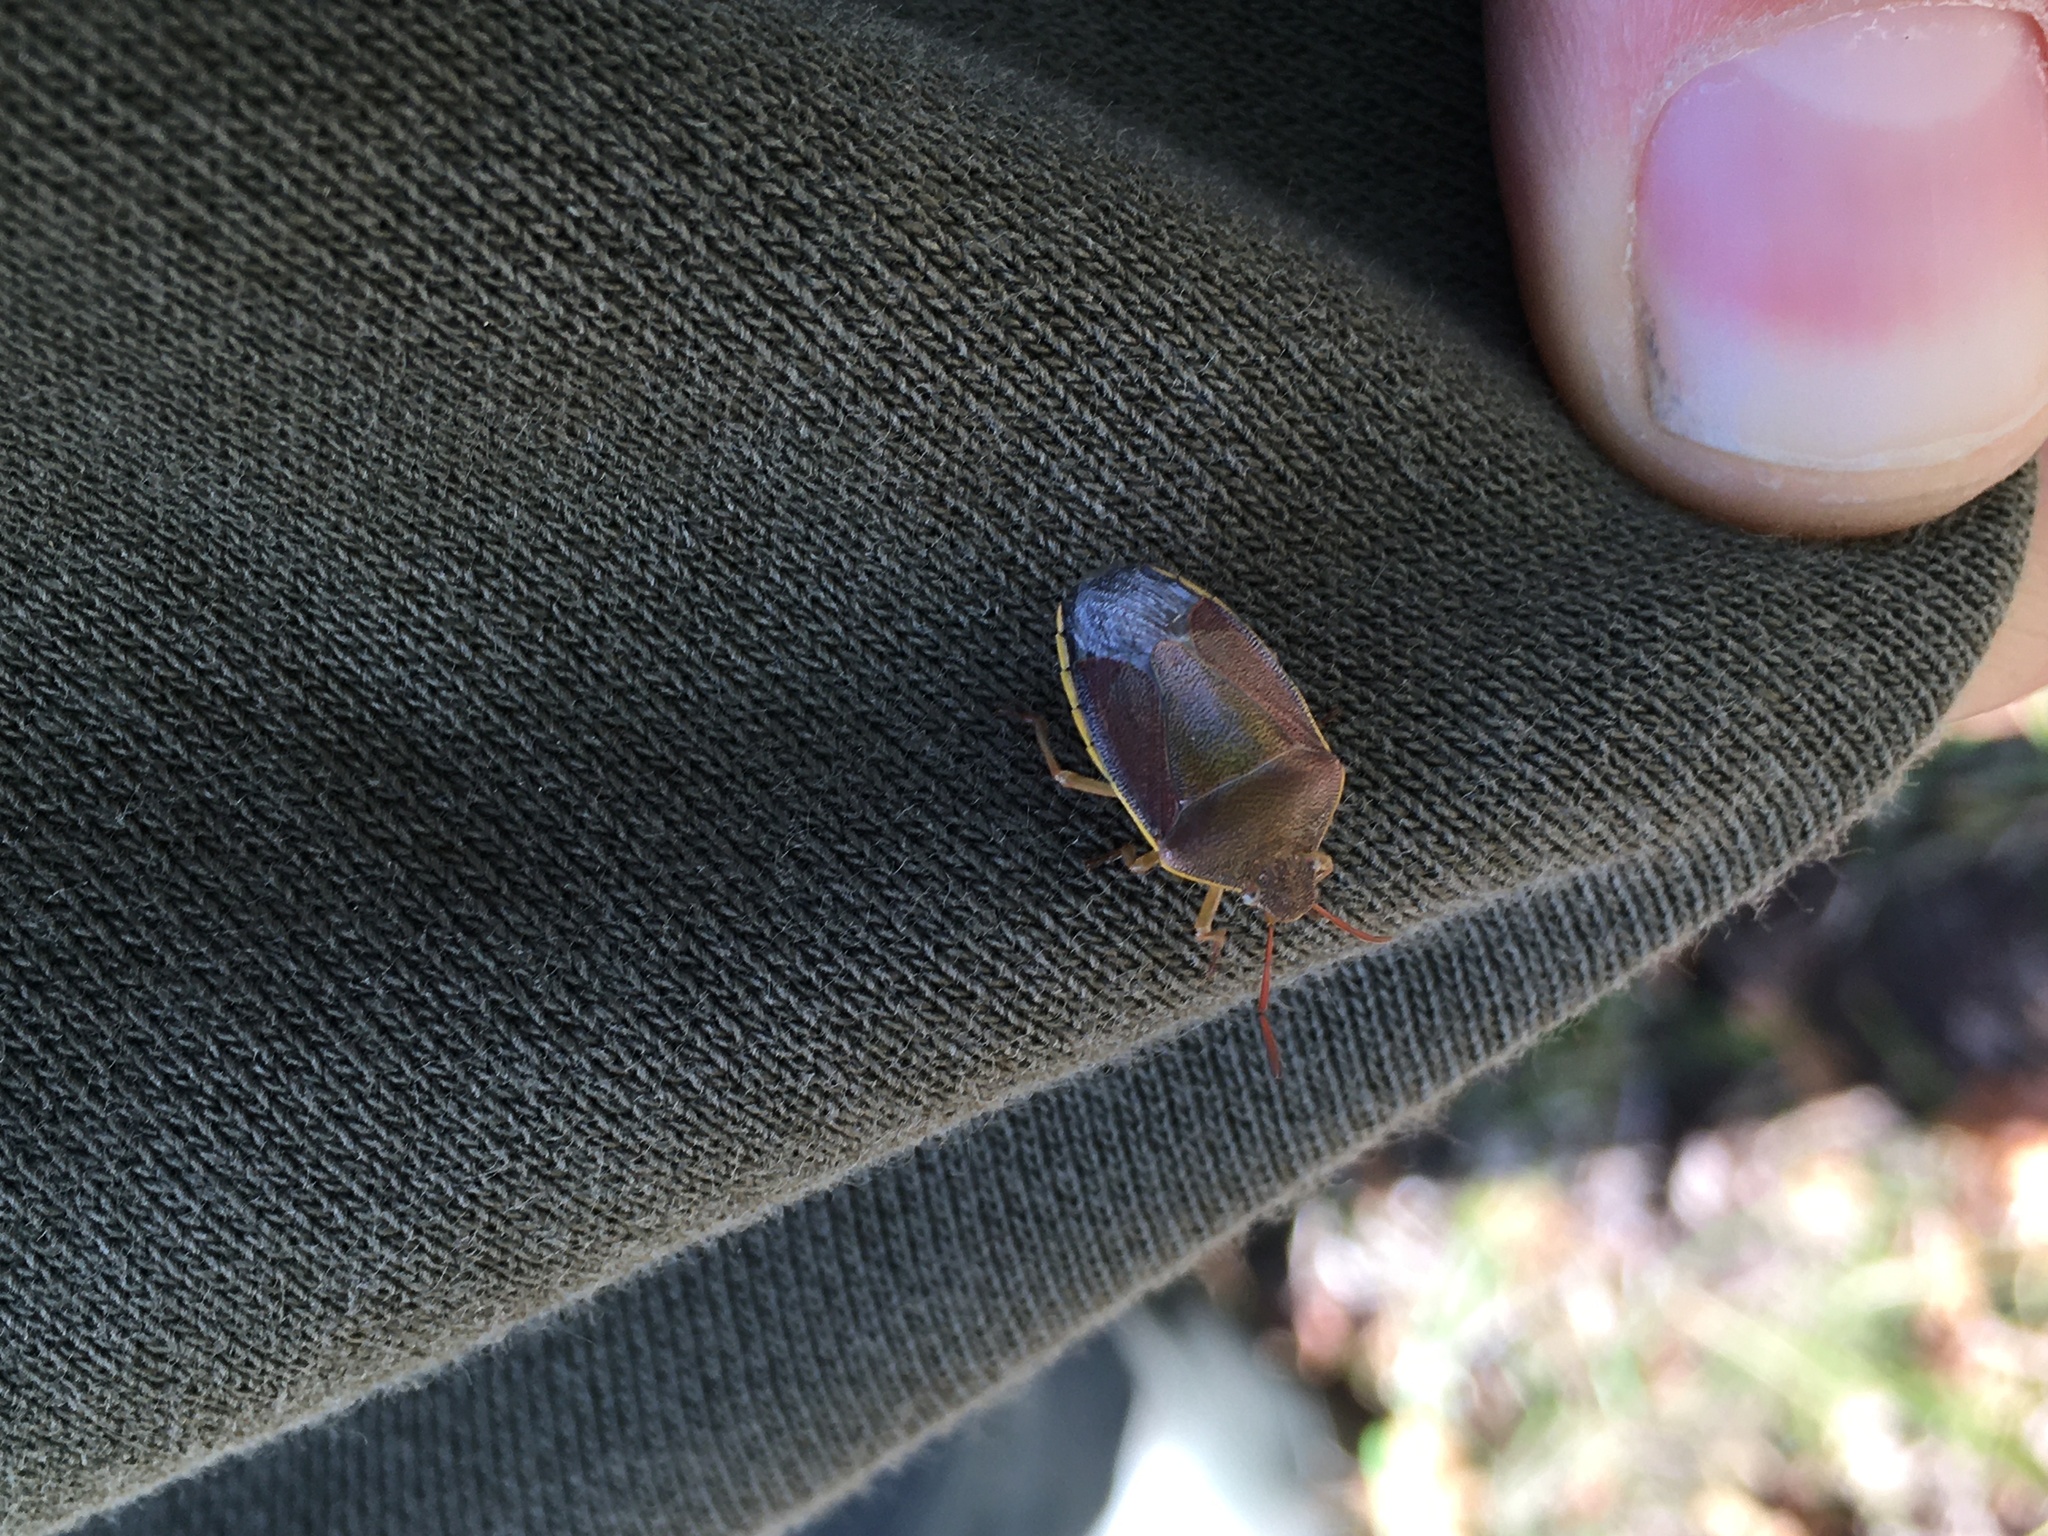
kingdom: Animalia
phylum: Arthropoda
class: Insecta
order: Hemiptera
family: Pentatomidae
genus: Piezodorus
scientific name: Piezodorus lituratus
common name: Stink bug
